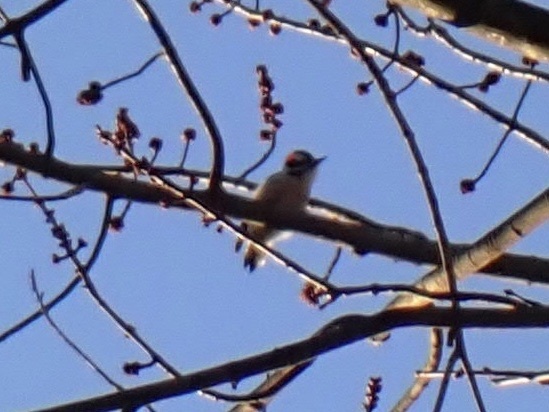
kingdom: Animalia
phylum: Chordata
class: Aves
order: Piciformes
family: Picidae
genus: Dryobates
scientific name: Dryobates pubescens
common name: Downy woodpecker
